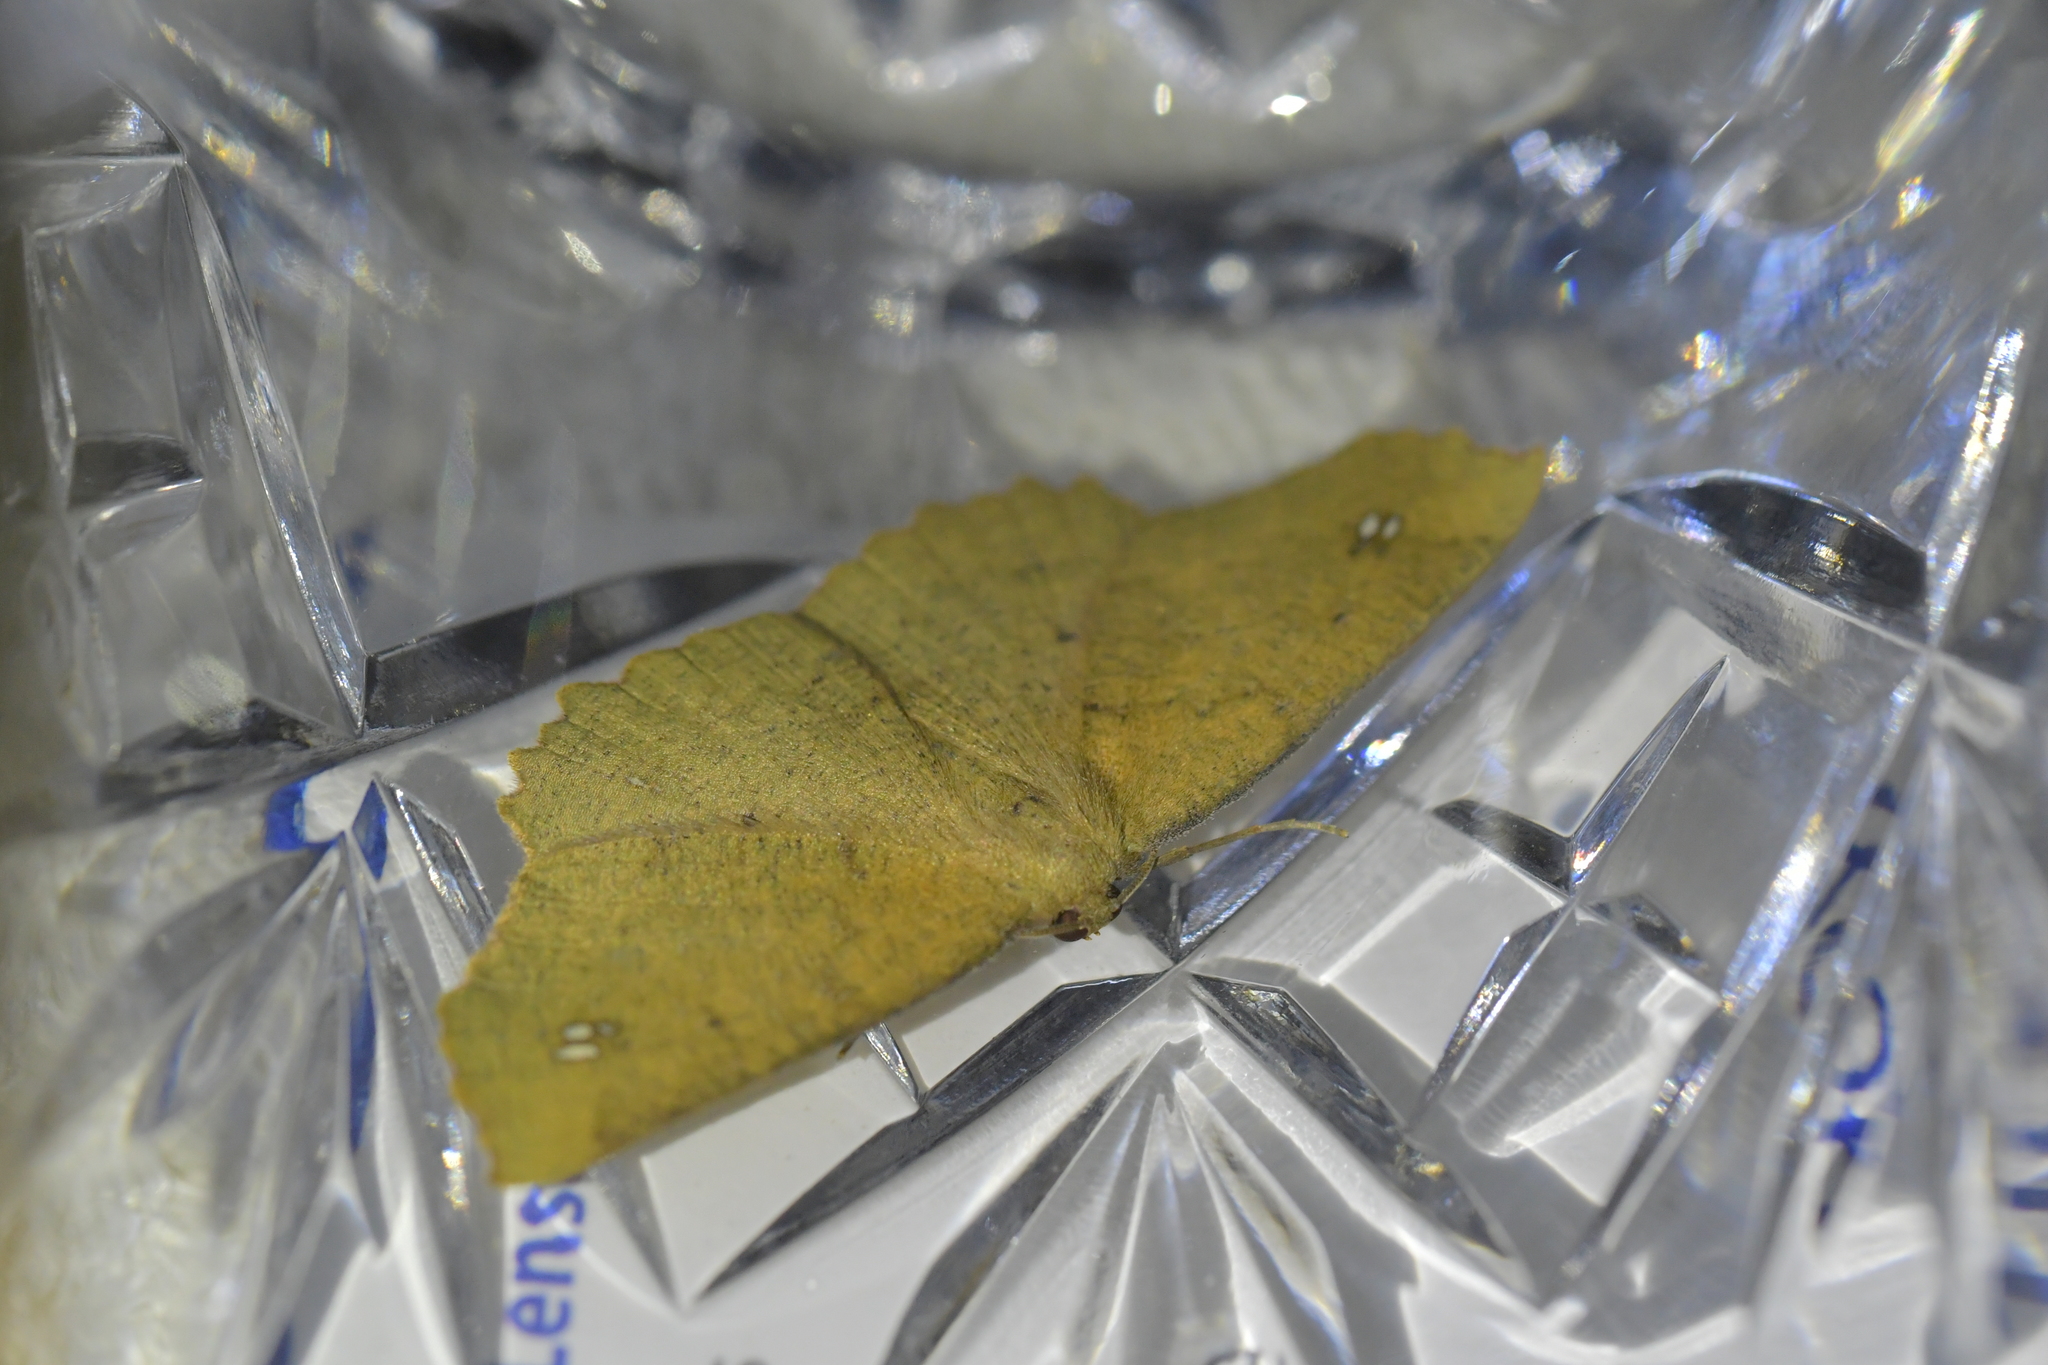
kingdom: Animalia
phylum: Arthropoda
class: Insecta
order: Lepidoptera
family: Geometridae
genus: Xyridacma
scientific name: Xyridacma ustaria
